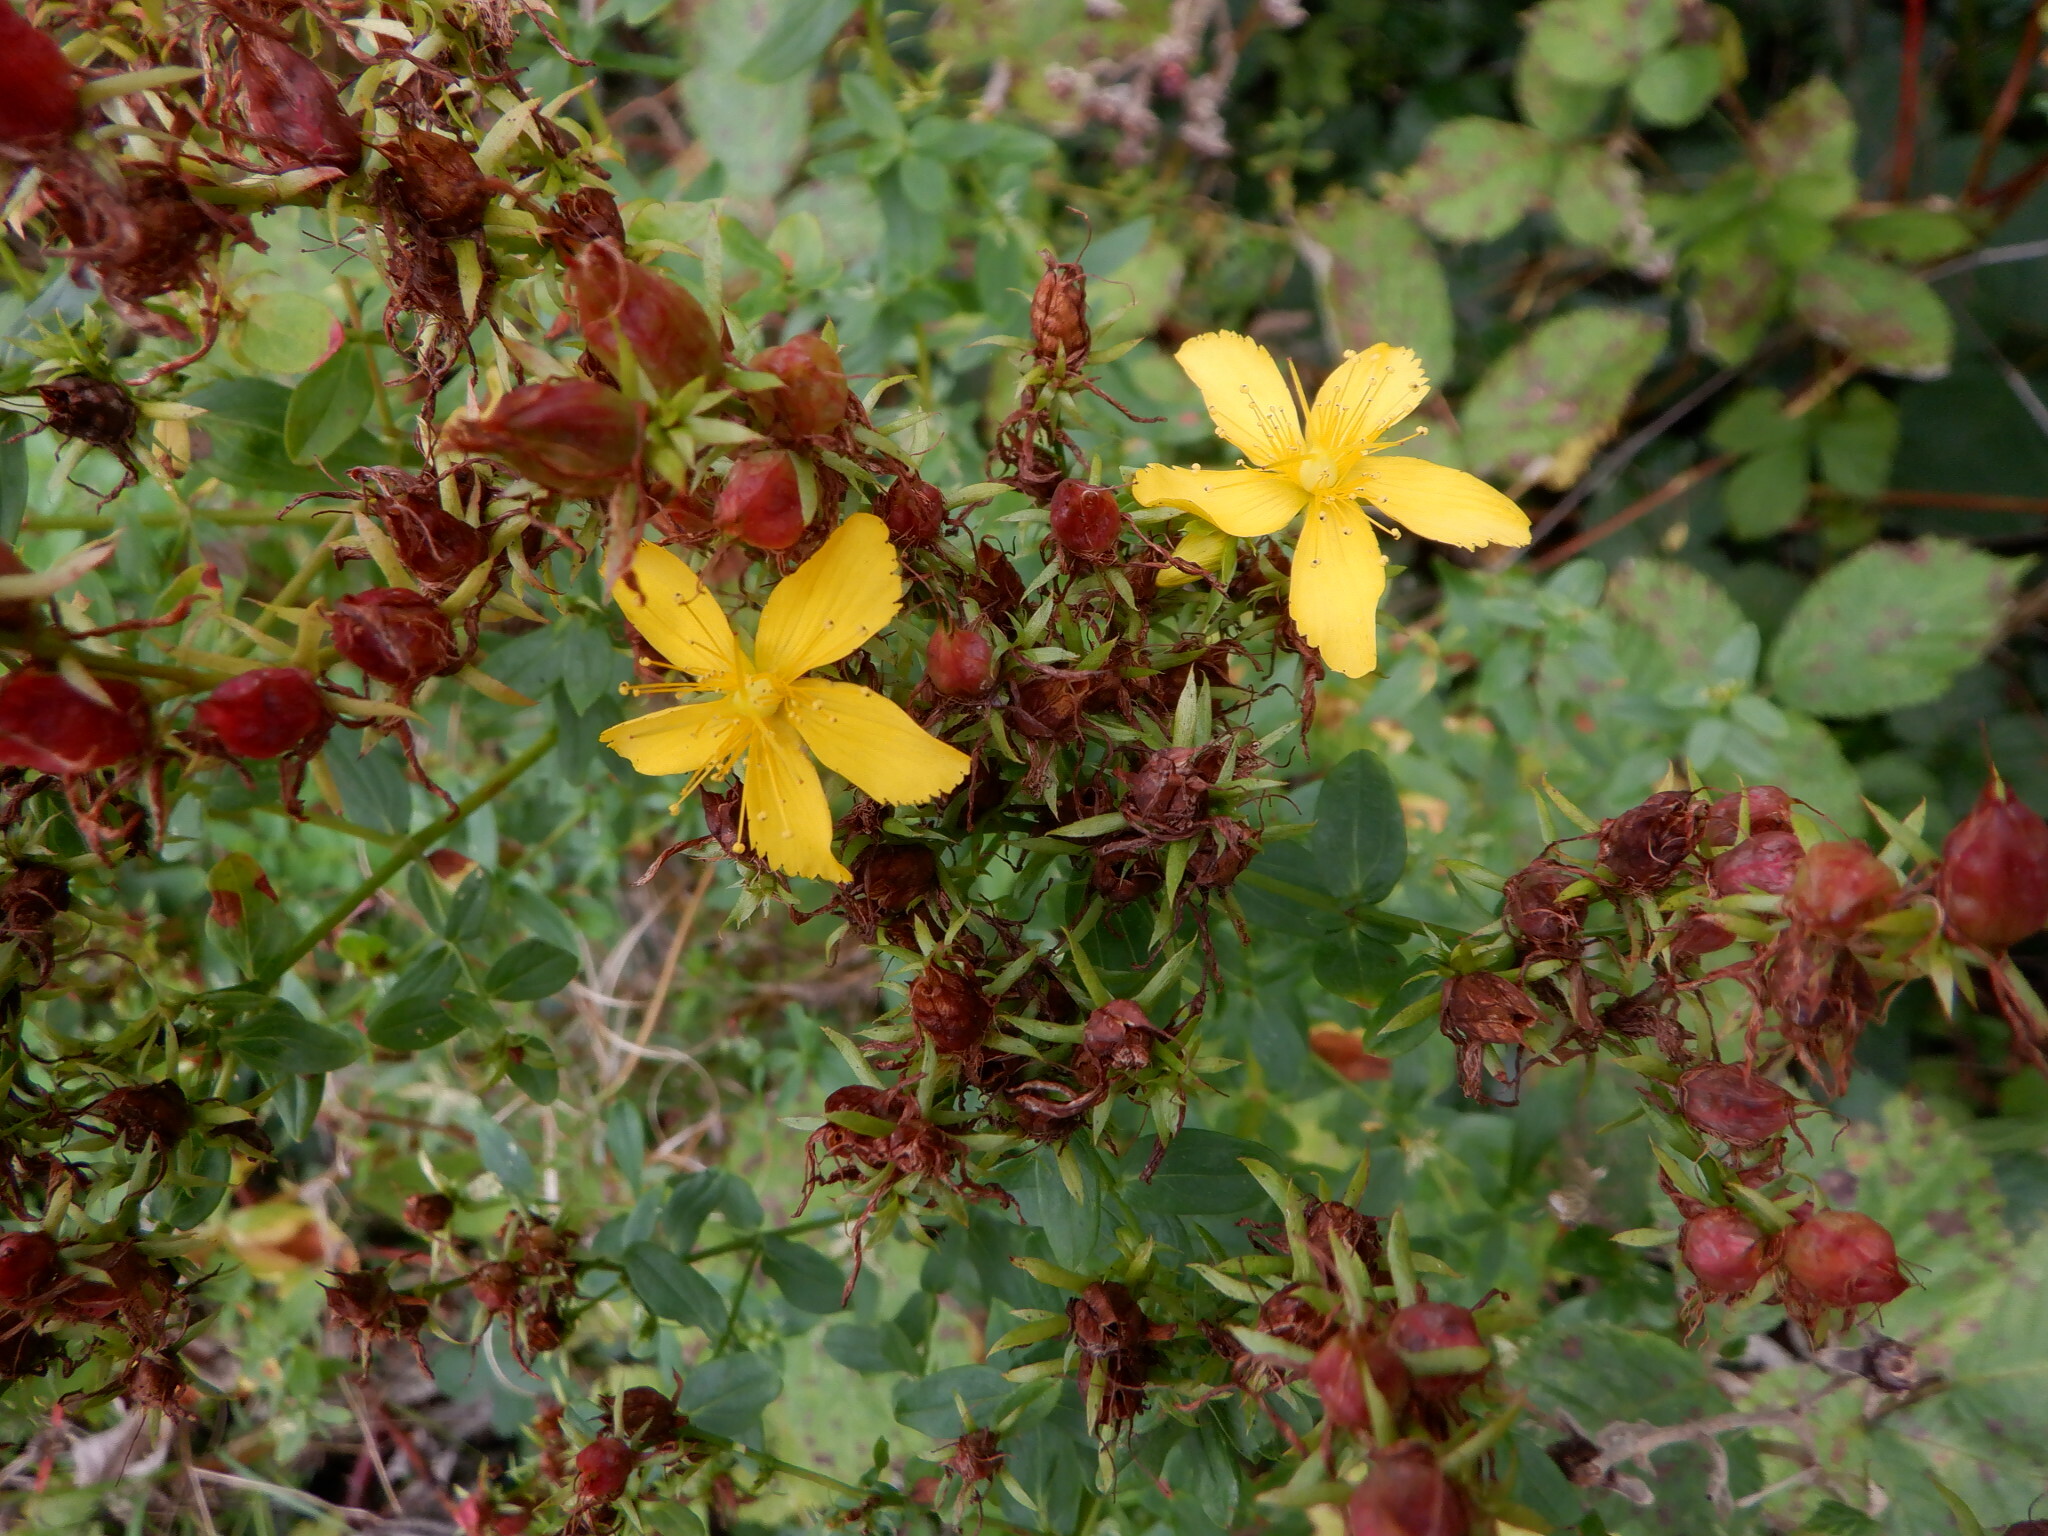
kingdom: Plantae
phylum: Tracheophyta
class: Magnoliopsida
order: Malpighiales
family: Hypericaceae
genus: Hypericum
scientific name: Hypericum perforatum
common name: Common st. johnswort
